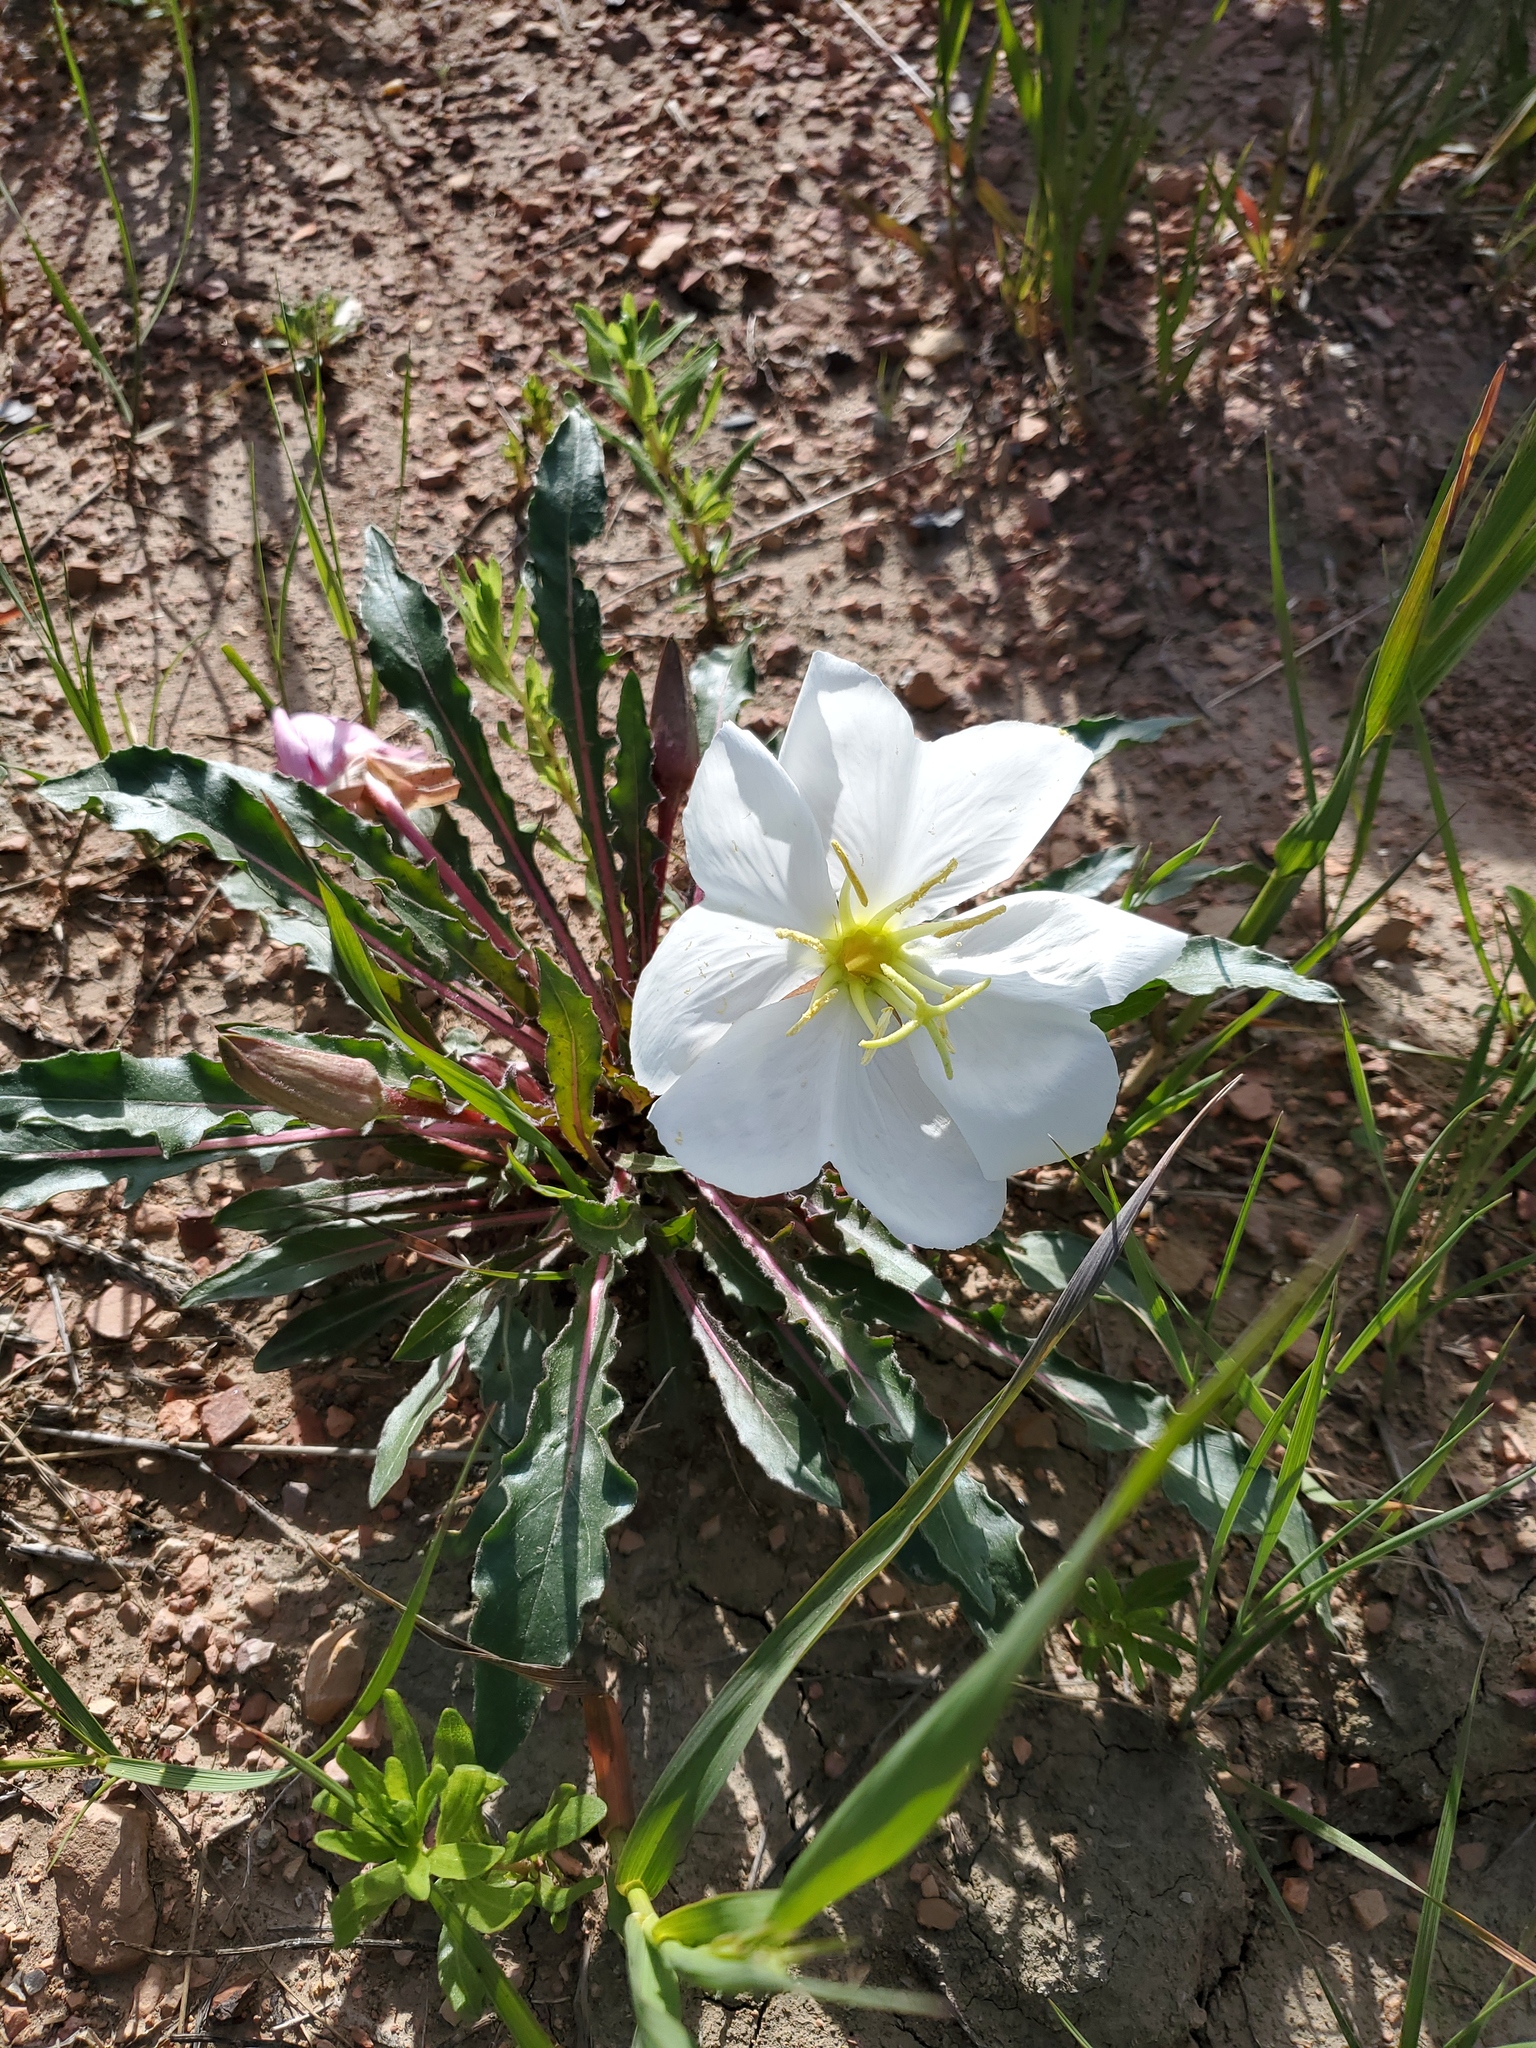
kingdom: Plantae
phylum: Tracheophyta
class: Magnoliopsida
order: Myrtales
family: Onagraceae
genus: Oenothera
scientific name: Oenothera cespitosa
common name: Tufted evening-primrose
